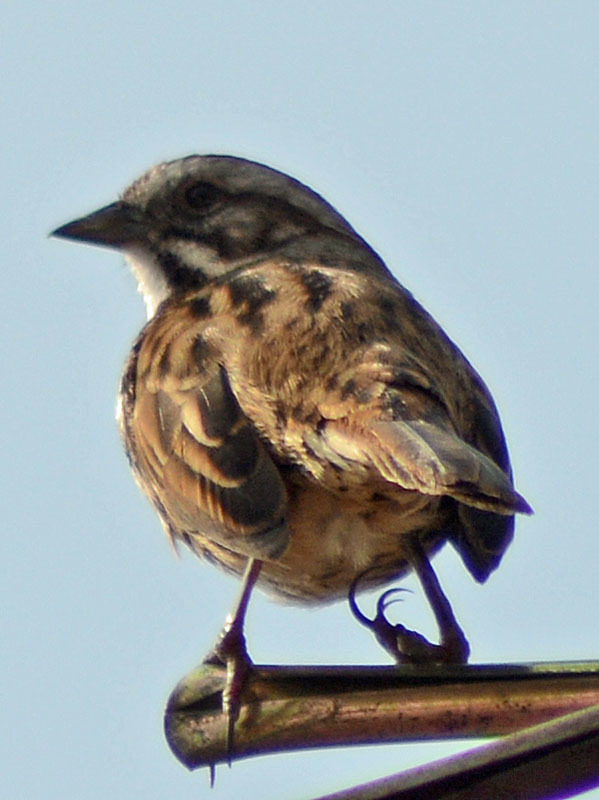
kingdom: Animalia
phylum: Chordata
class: Aves
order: Passeriformes
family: Passerellidae
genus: Melospiza
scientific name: Melospiza melodia
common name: Song sparrow
